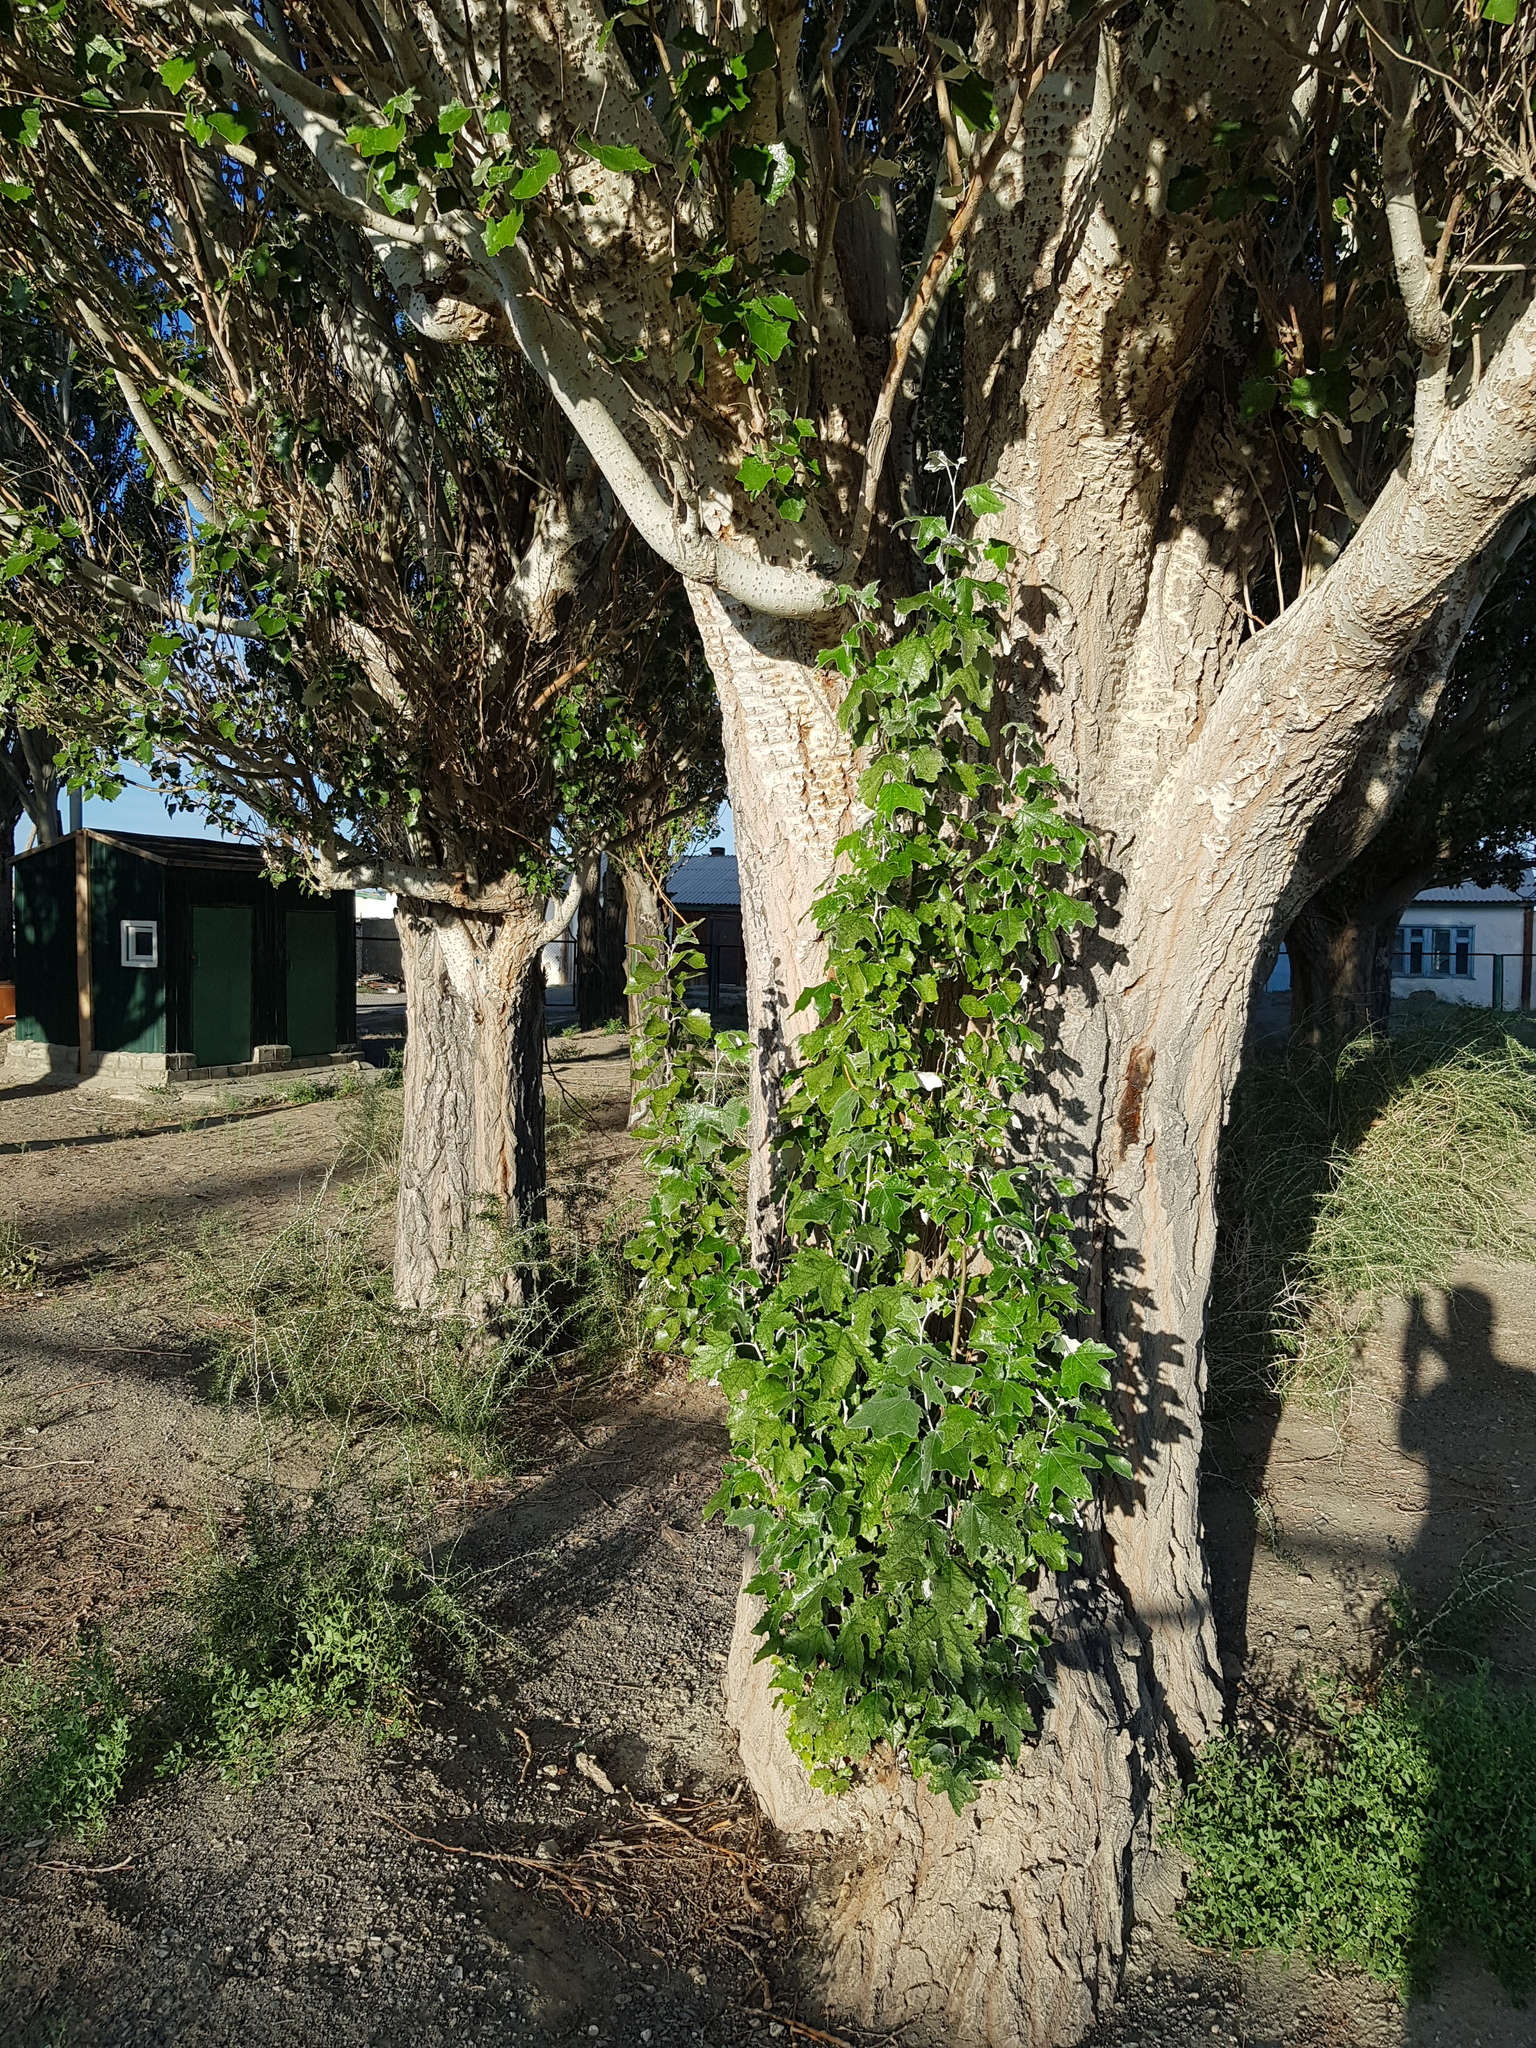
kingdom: Plantae
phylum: Tracheophyta
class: Magnoliopsida
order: Malpighiales
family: Salicaceae
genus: Populus
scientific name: Populus alba
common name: White poplar
